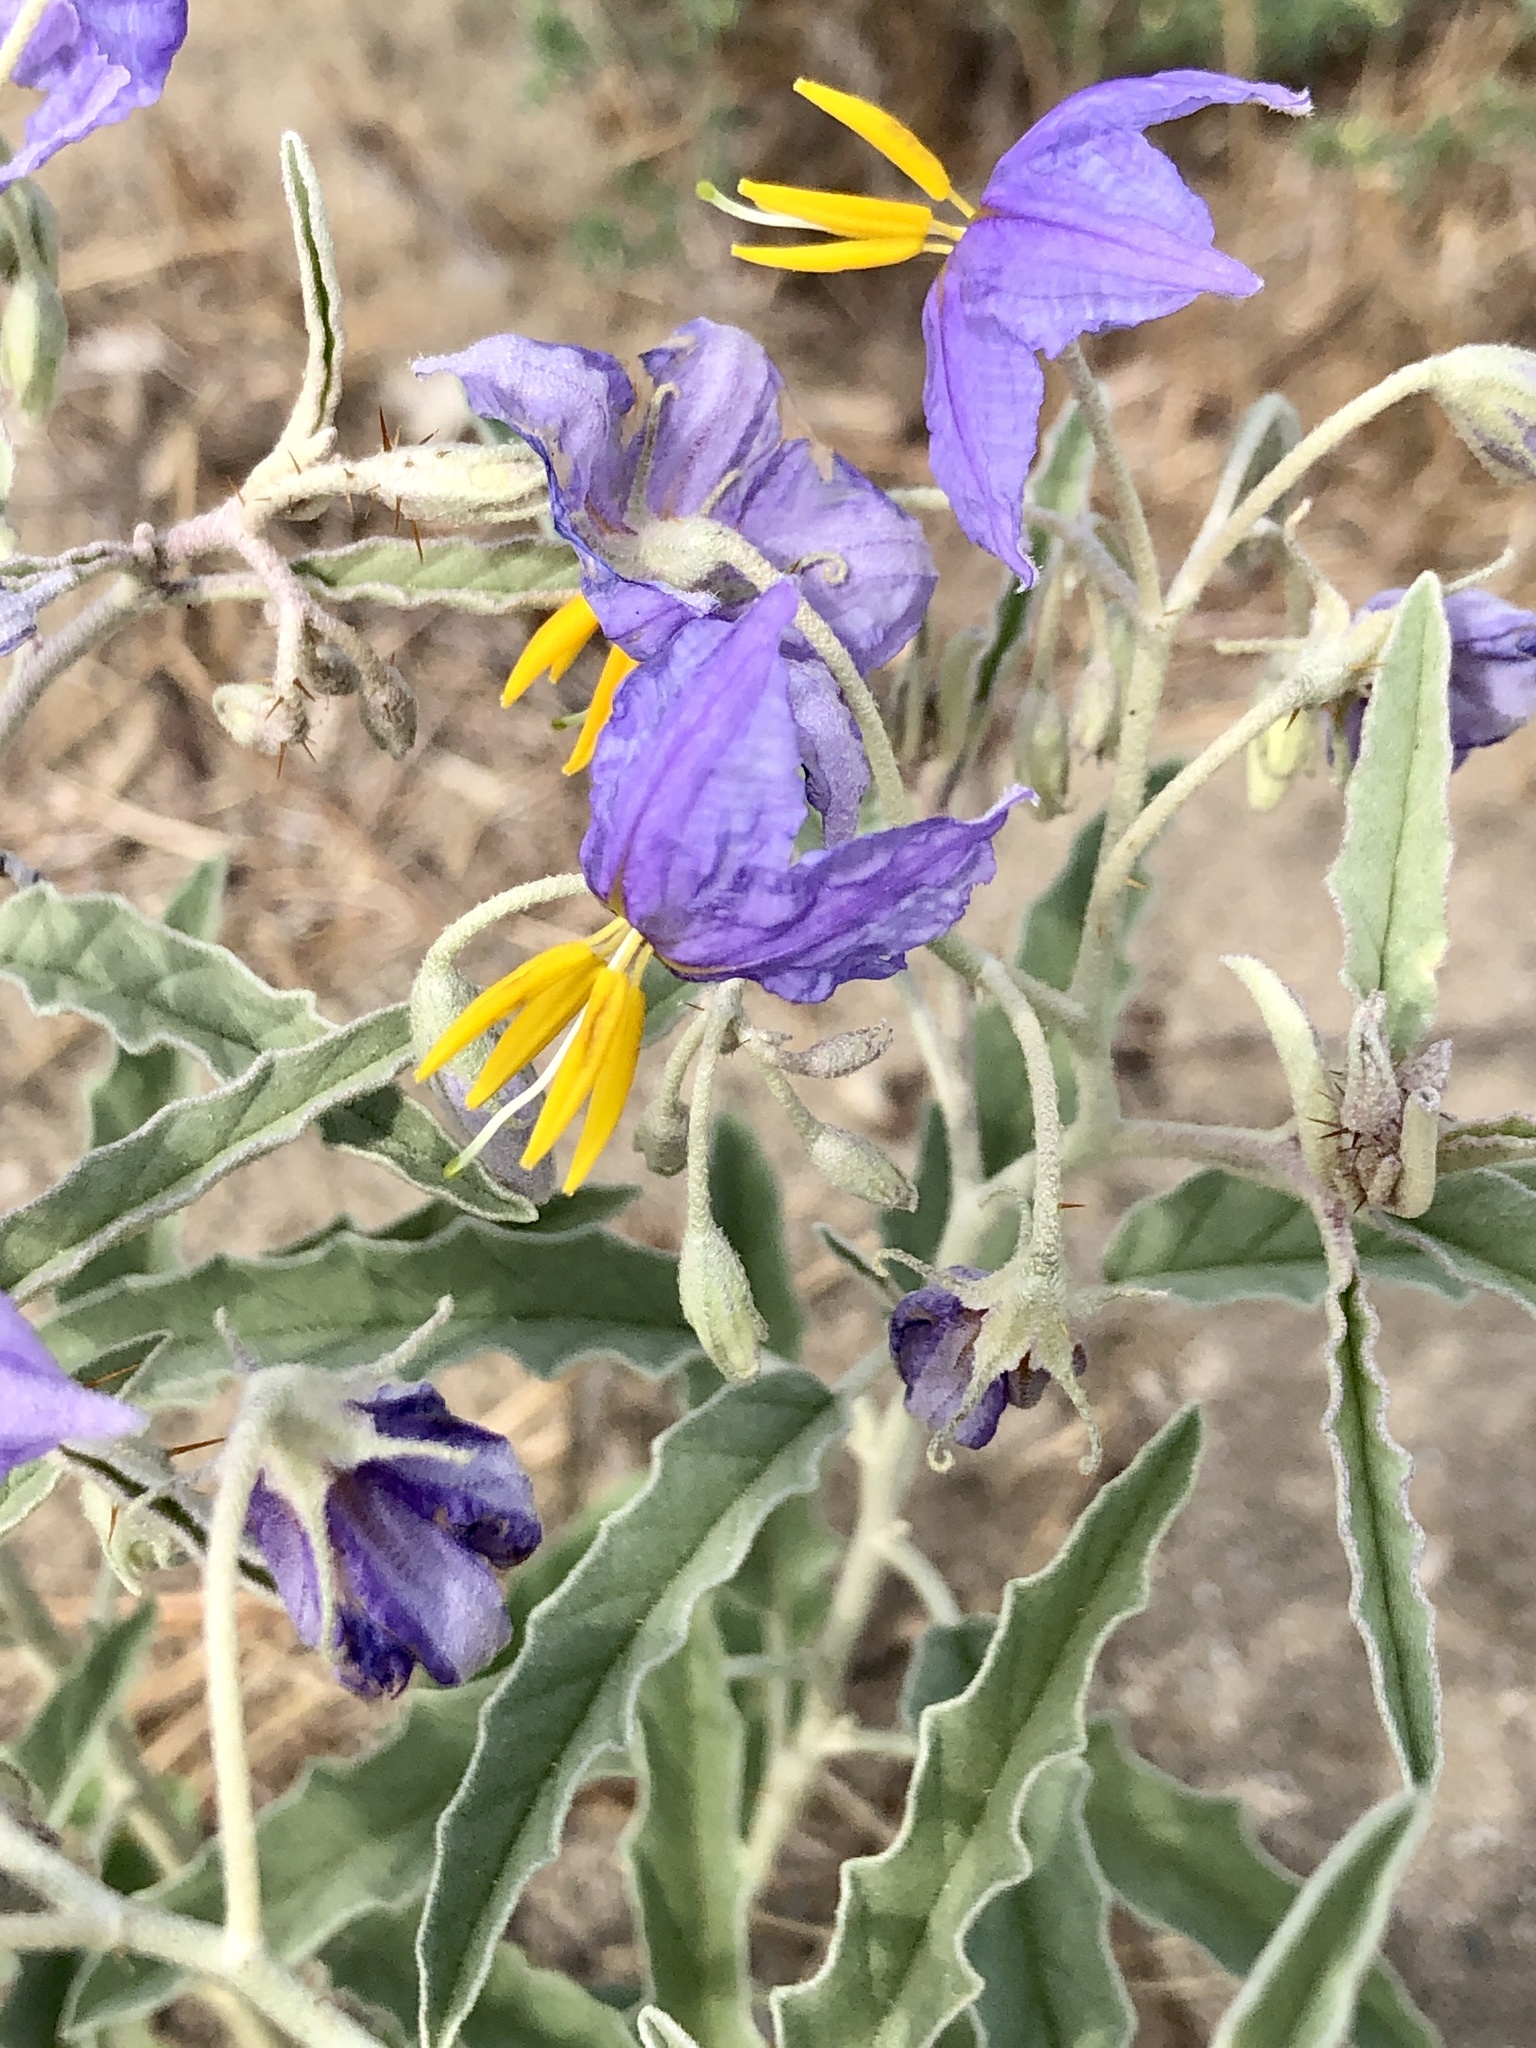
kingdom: Plantae
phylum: Tracheophyta
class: Magnoliopsida
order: Solanales
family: Solanaceae
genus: Solanum
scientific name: Solanum elaeagnifolium
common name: Silverleaf nightshade
